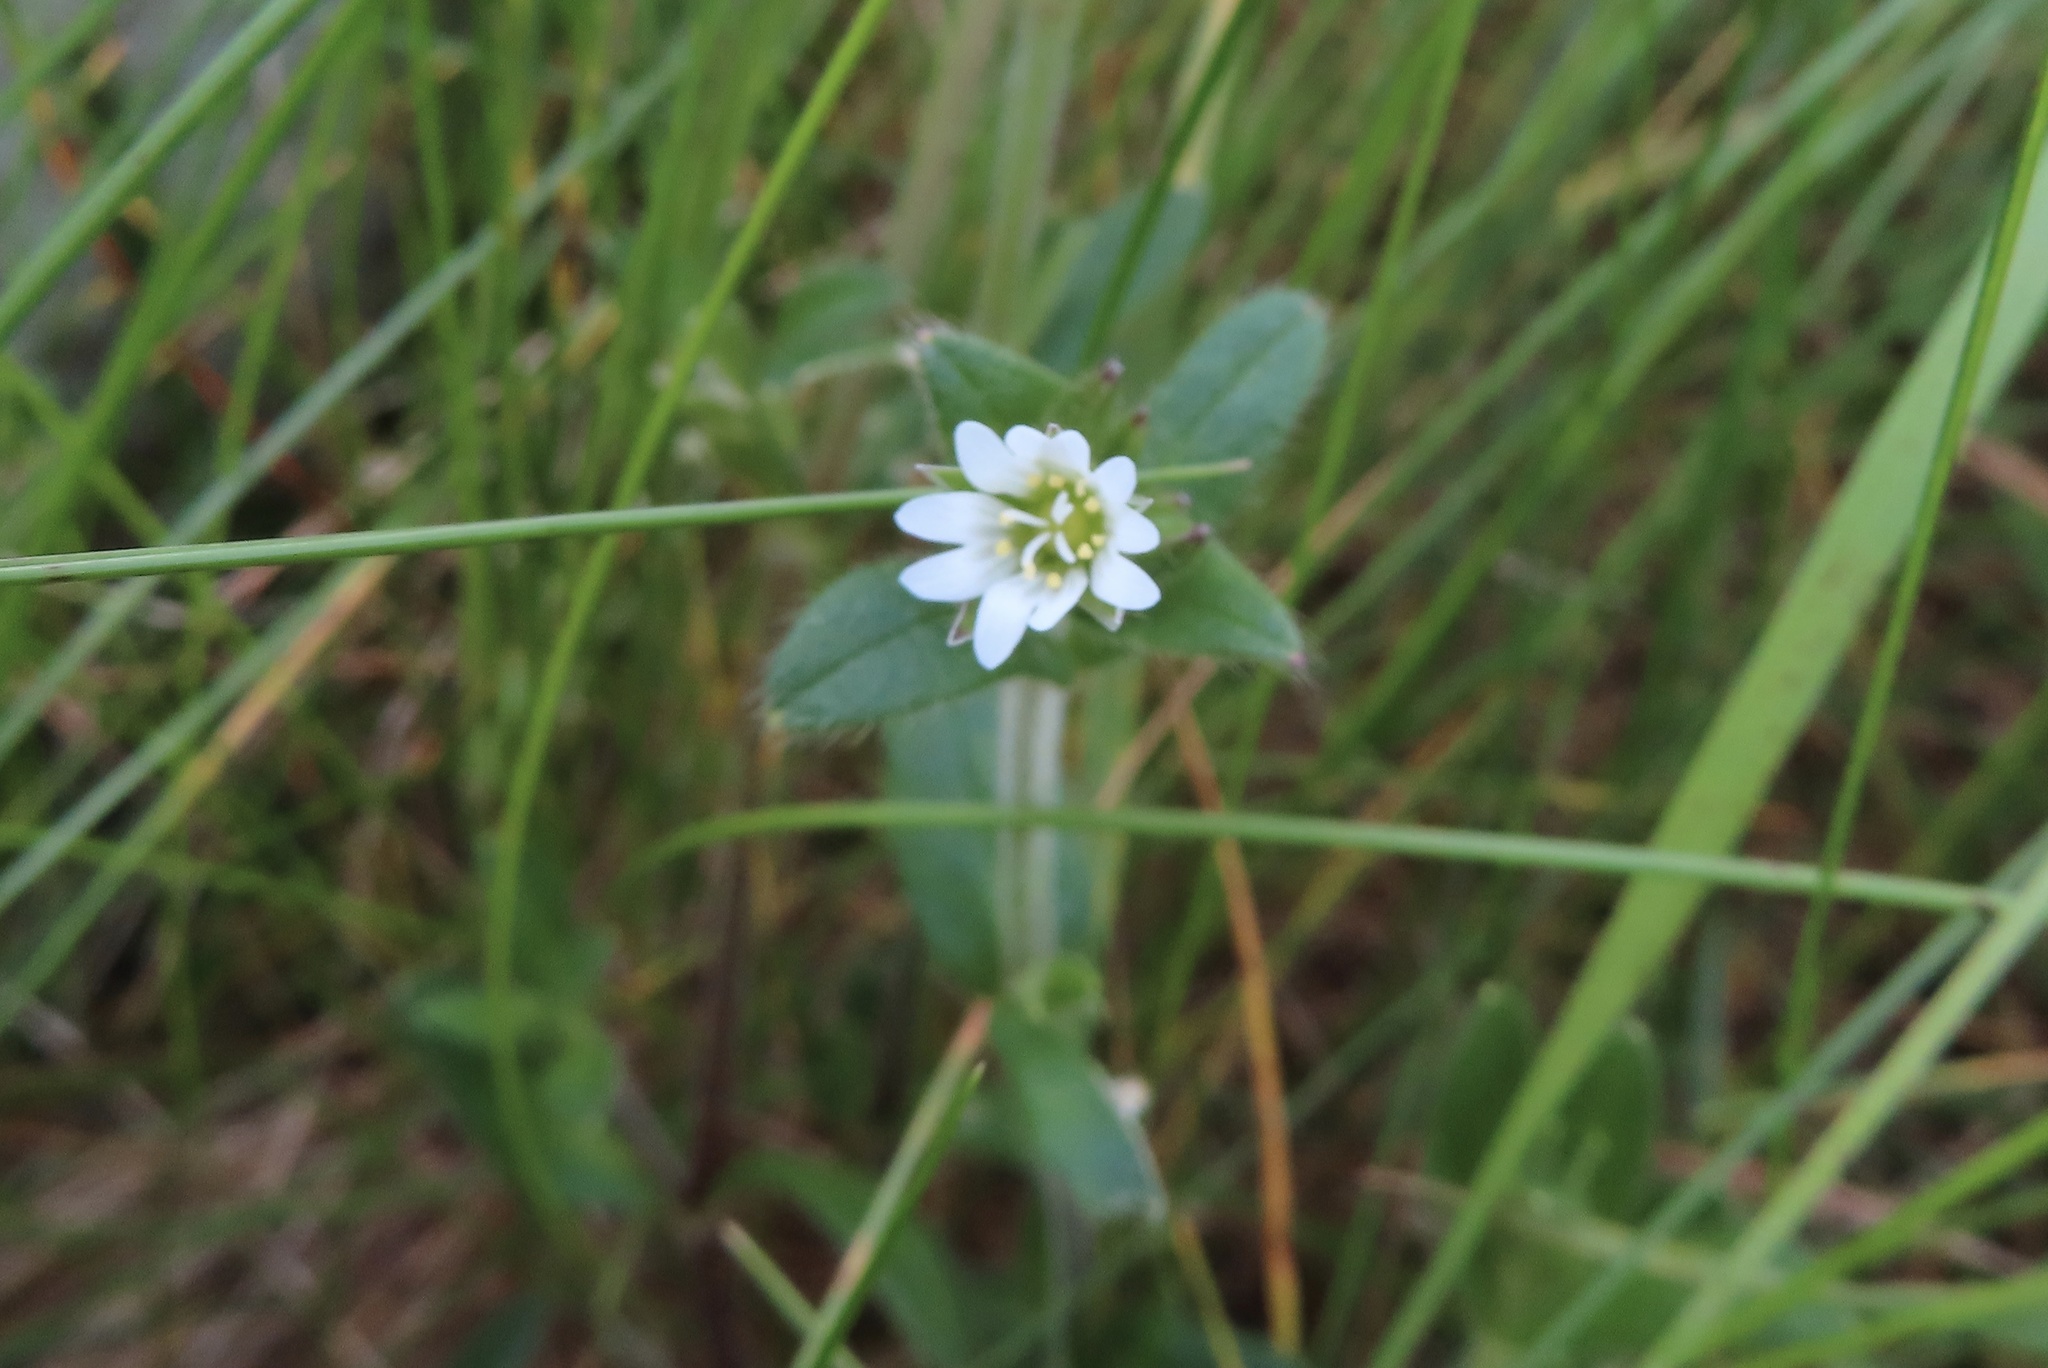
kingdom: Plantae
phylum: Tracheophyta
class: Magnoliopsida
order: Caryophyllales
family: Caryophyllaceae
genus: Cerastium
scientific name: Cerastium fontanum
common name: Common mouse-ear
